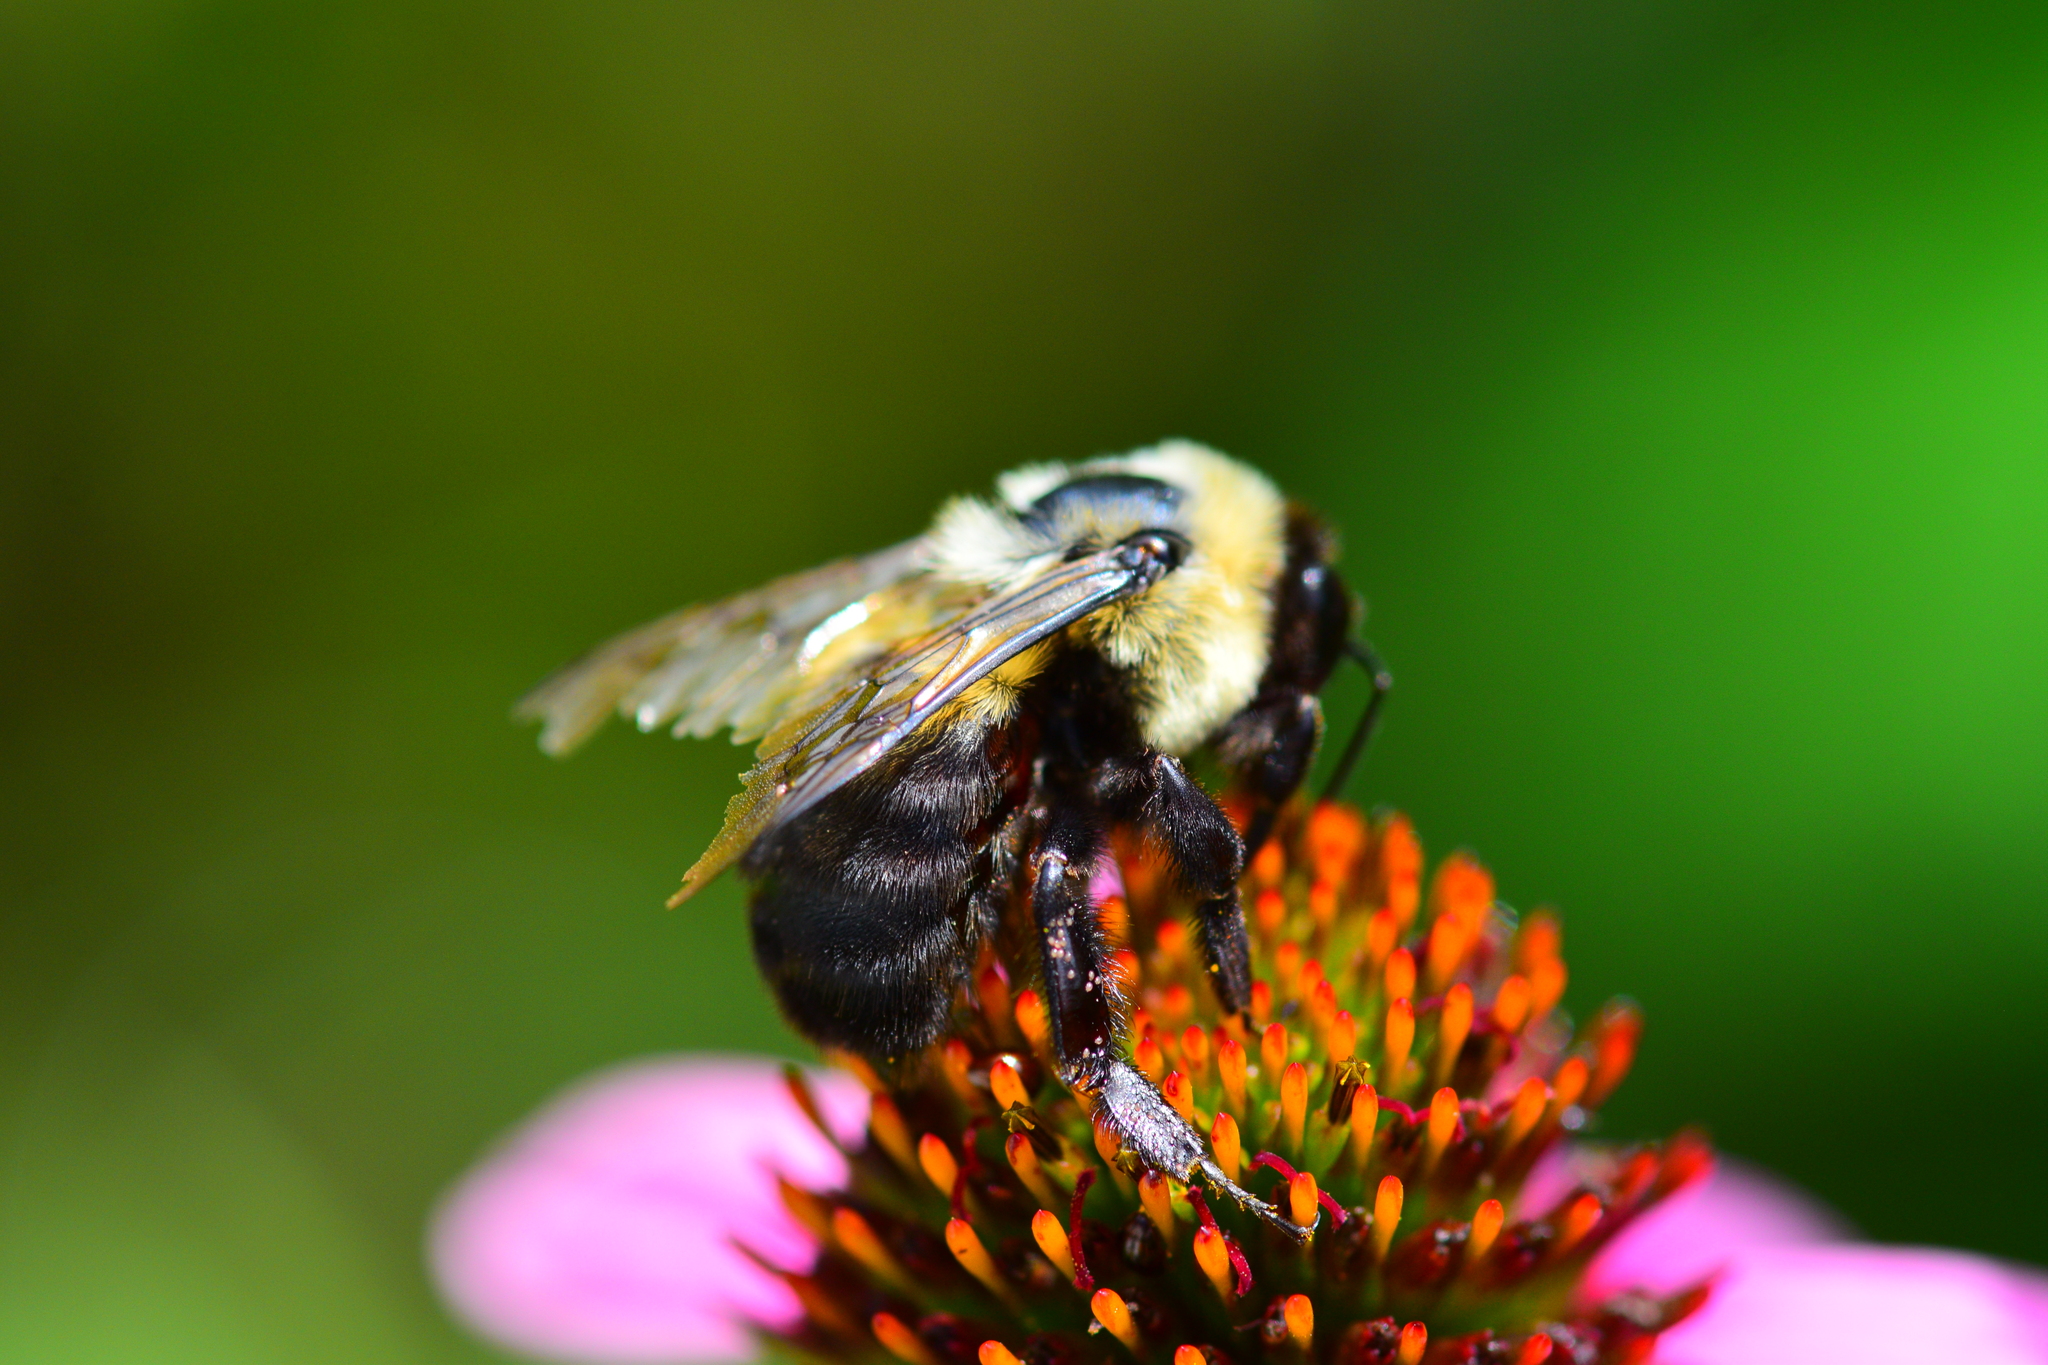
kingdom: Animalia
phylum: Arthropoda
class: Insecta
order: Hymenoptera
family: Apidae
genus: Bombus
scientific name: Bombus griseocollis
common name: Brown-belted bumble bee
